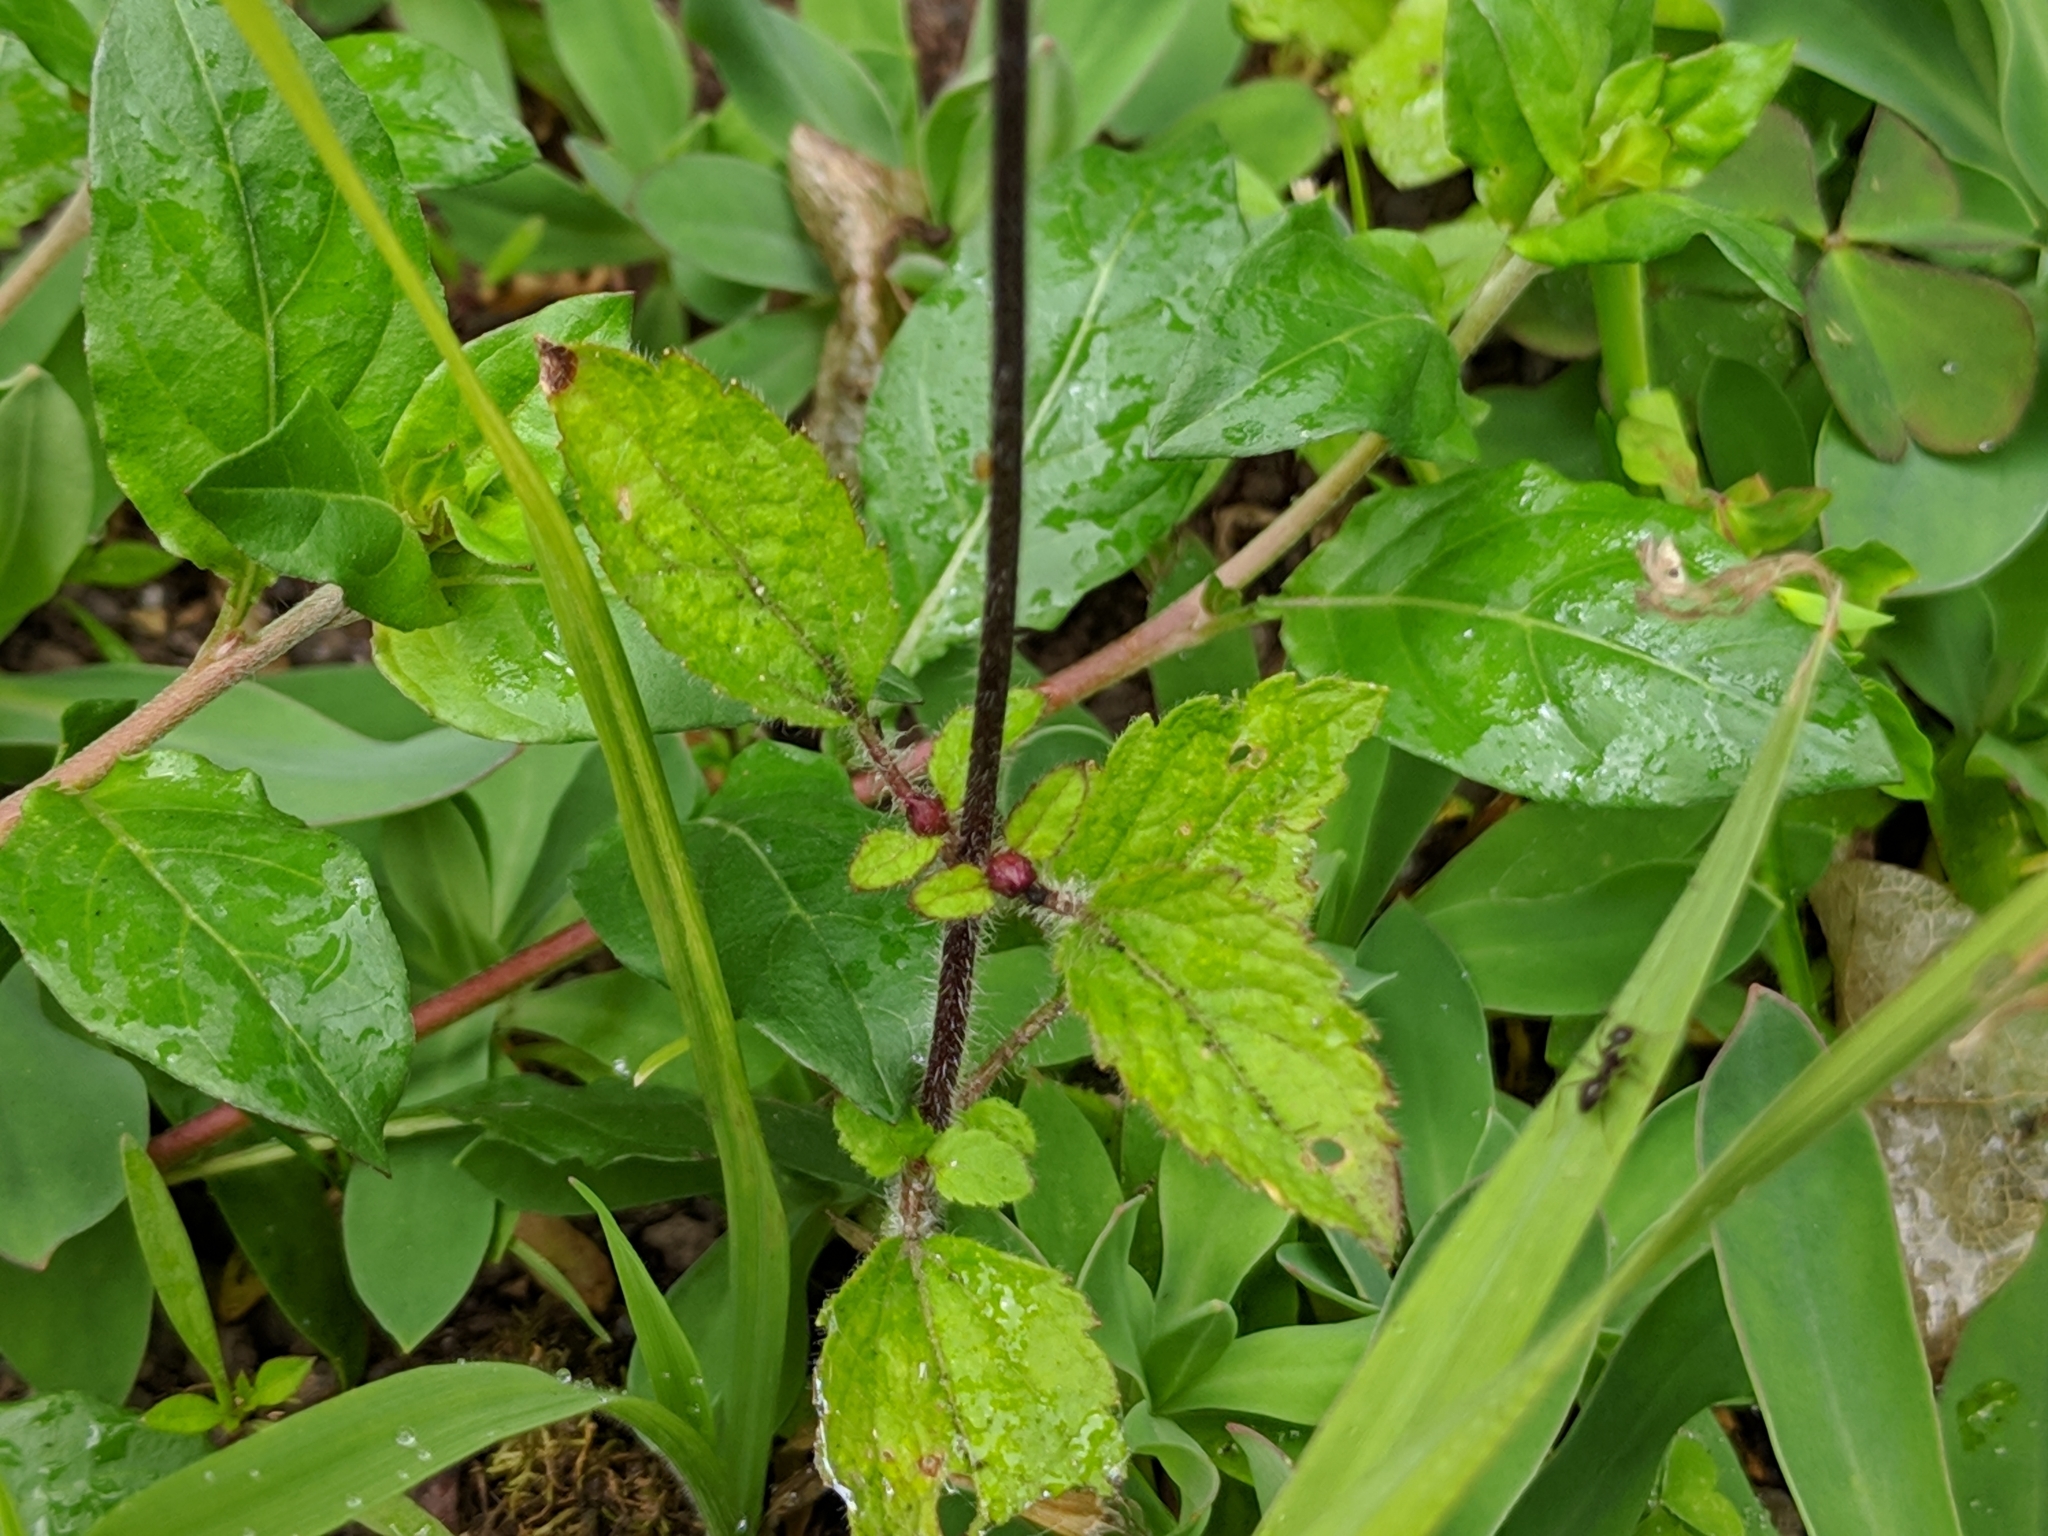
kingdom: Plantae
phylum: Tracheophyta
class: Magnoliopsida
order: Asterales
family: Asteraceae
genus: Ageratum
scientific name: Ageratum conyzoides
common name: Tropical whiteweed
